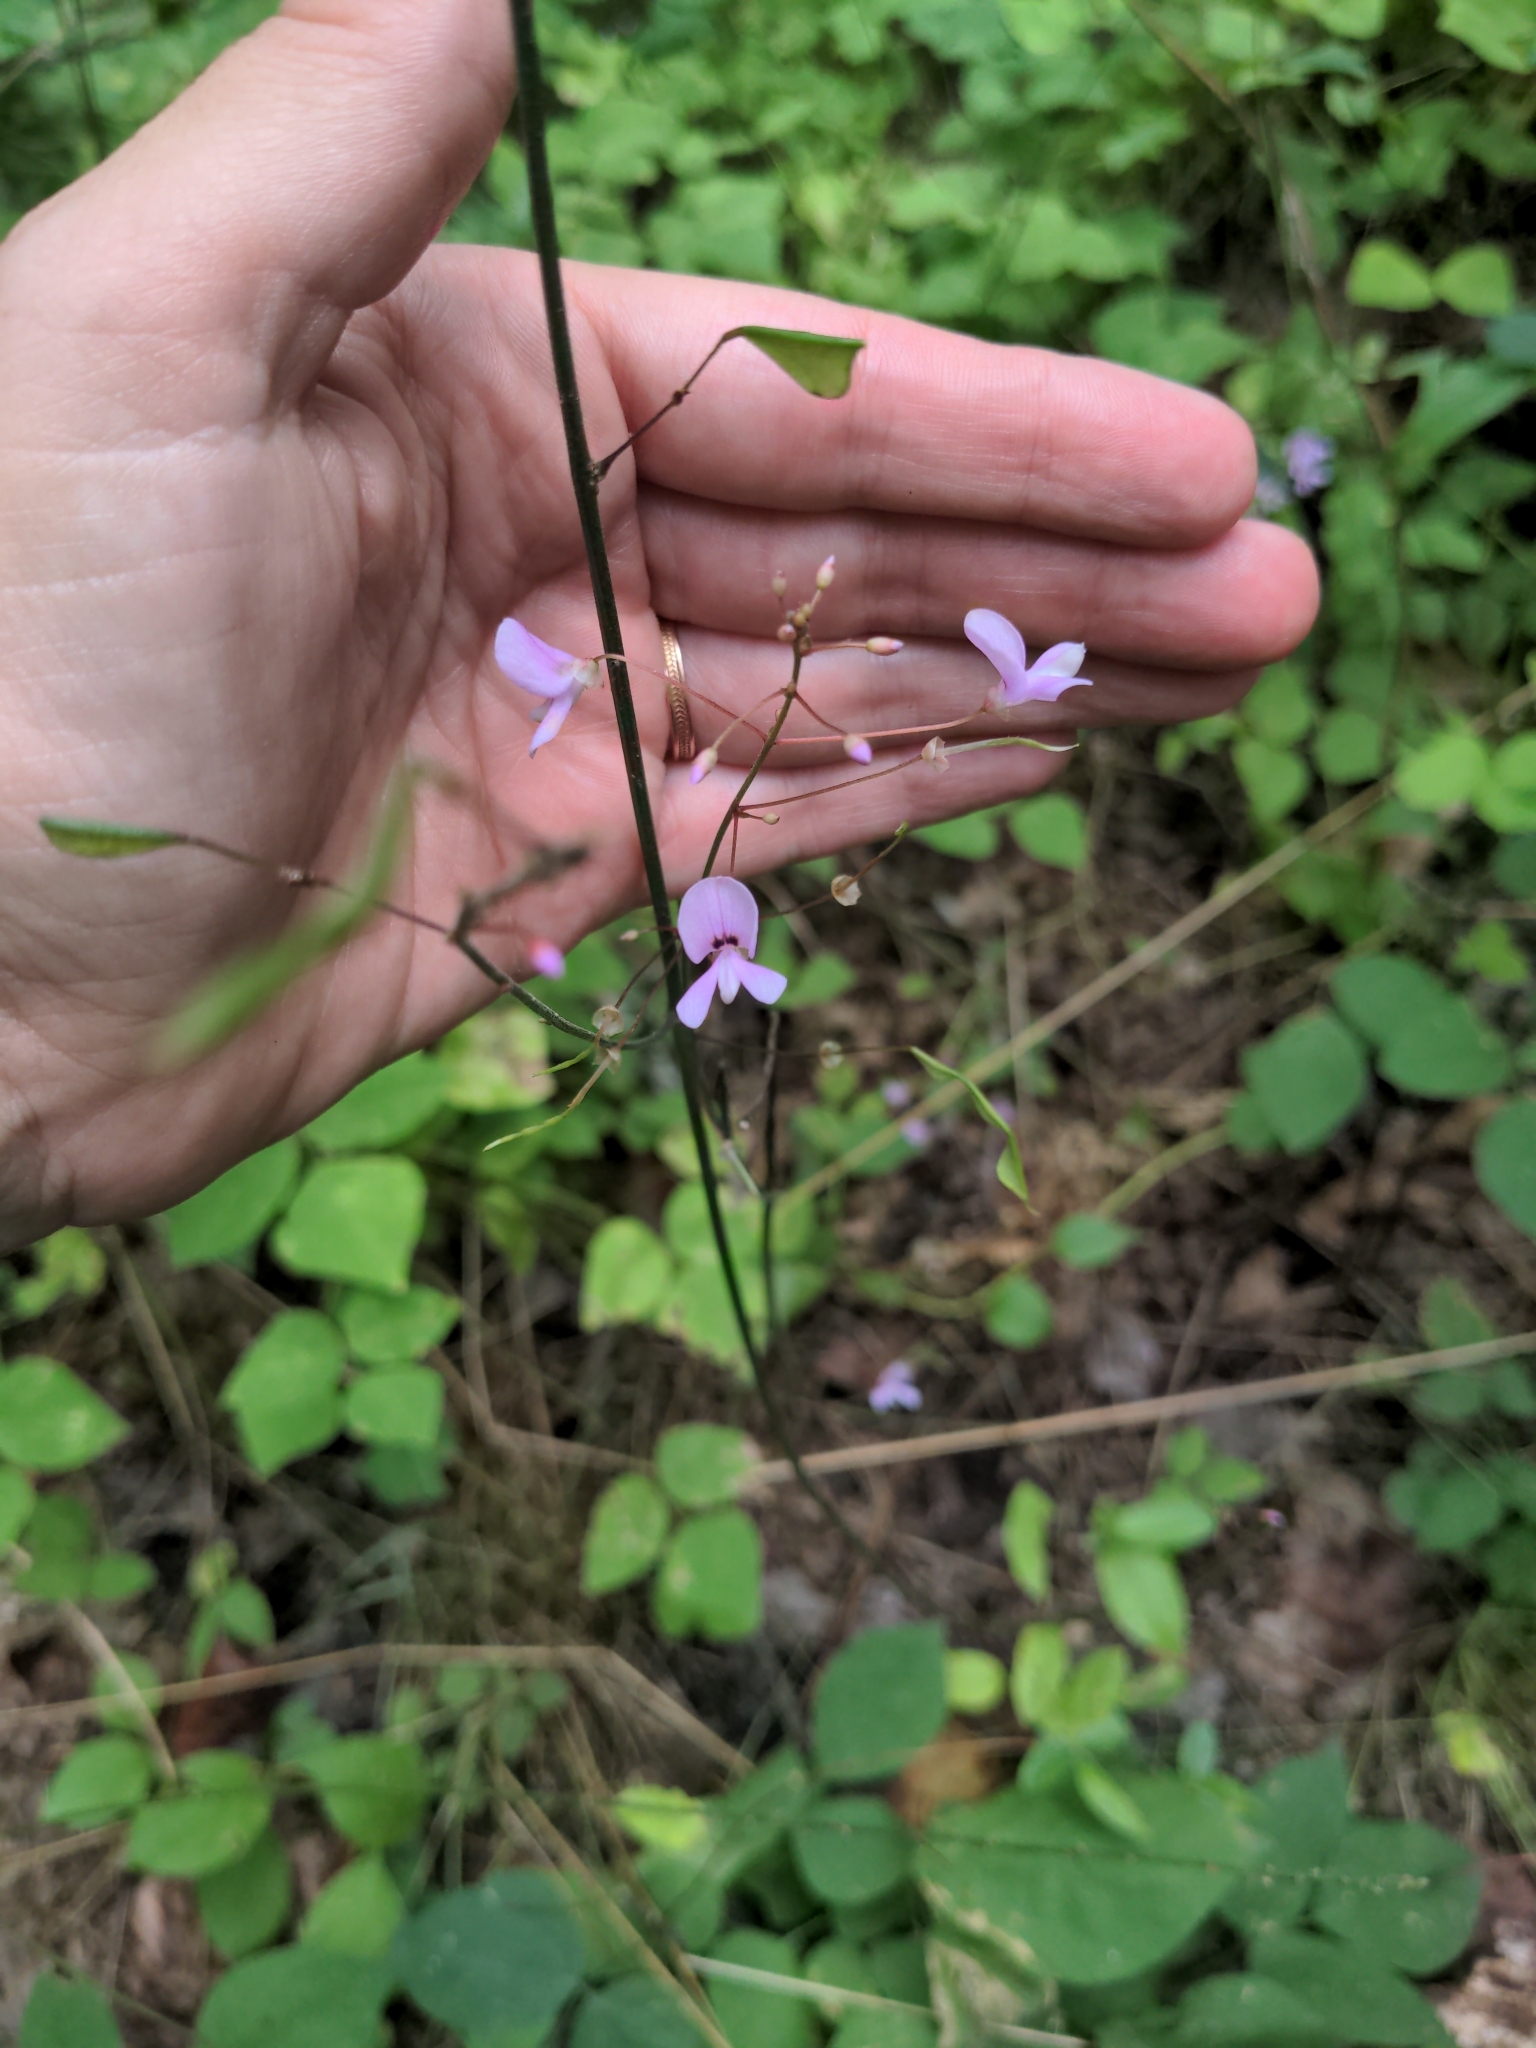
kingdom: Plantae
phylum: Tracheophyta
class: Magnoliopsida
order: Fabales
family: Fabaceae
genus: Hylodesmum
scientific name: Hylodesmum nudiflorum
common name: Bare-stemmed tick-trefoil
